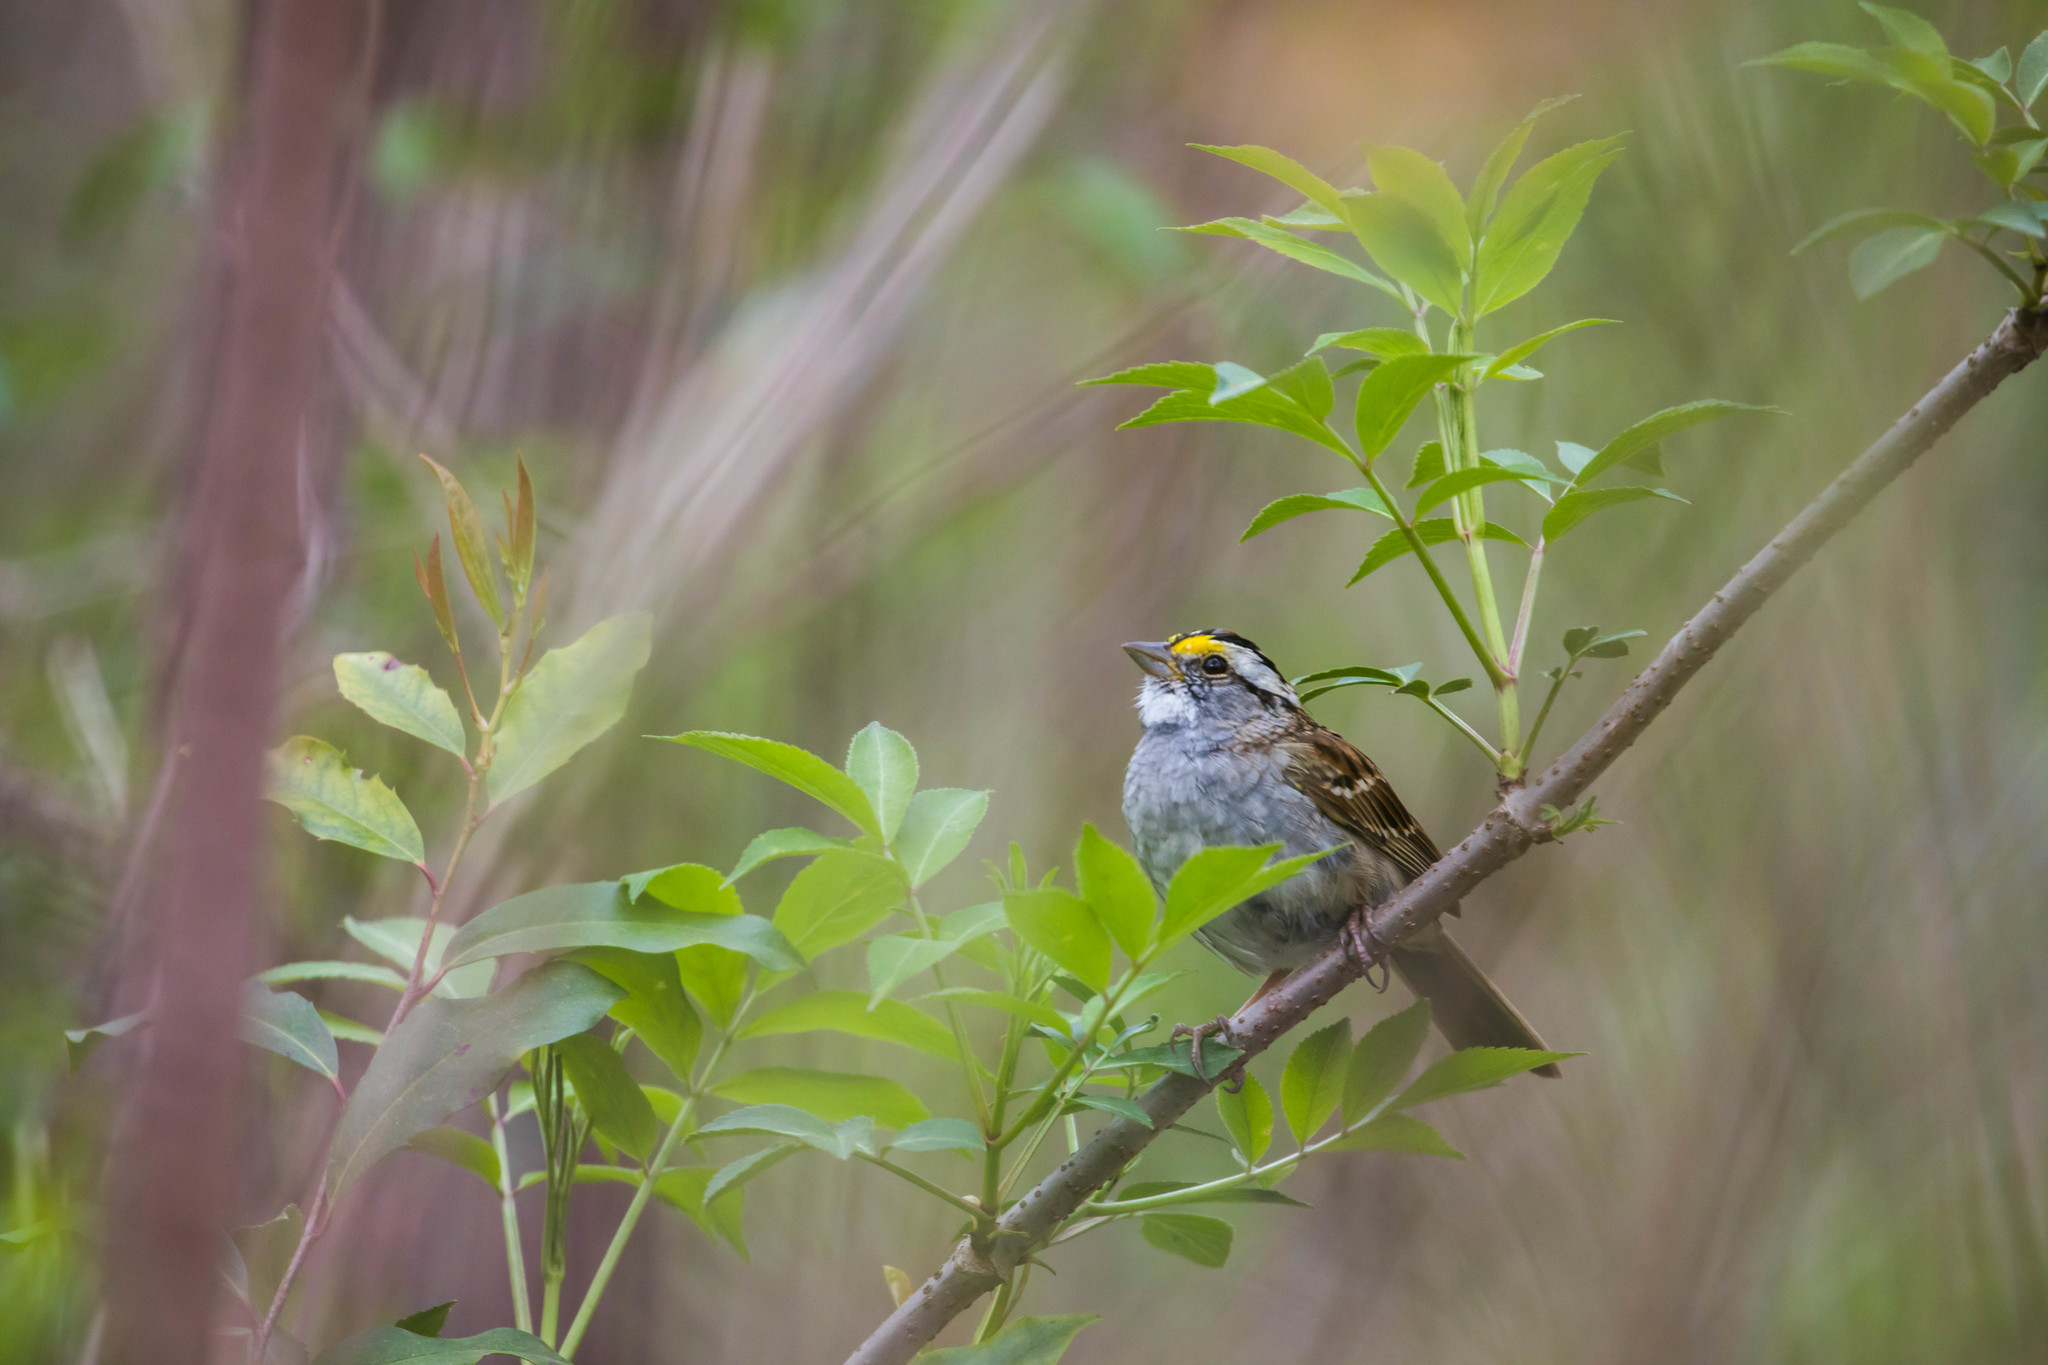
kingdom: Animalia
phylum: Chordata
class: Aves
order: Passeriformes
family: Passerellidae
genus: Zonotrichia
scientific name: Zonotrichia albicollis
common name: White-throated sparrow
